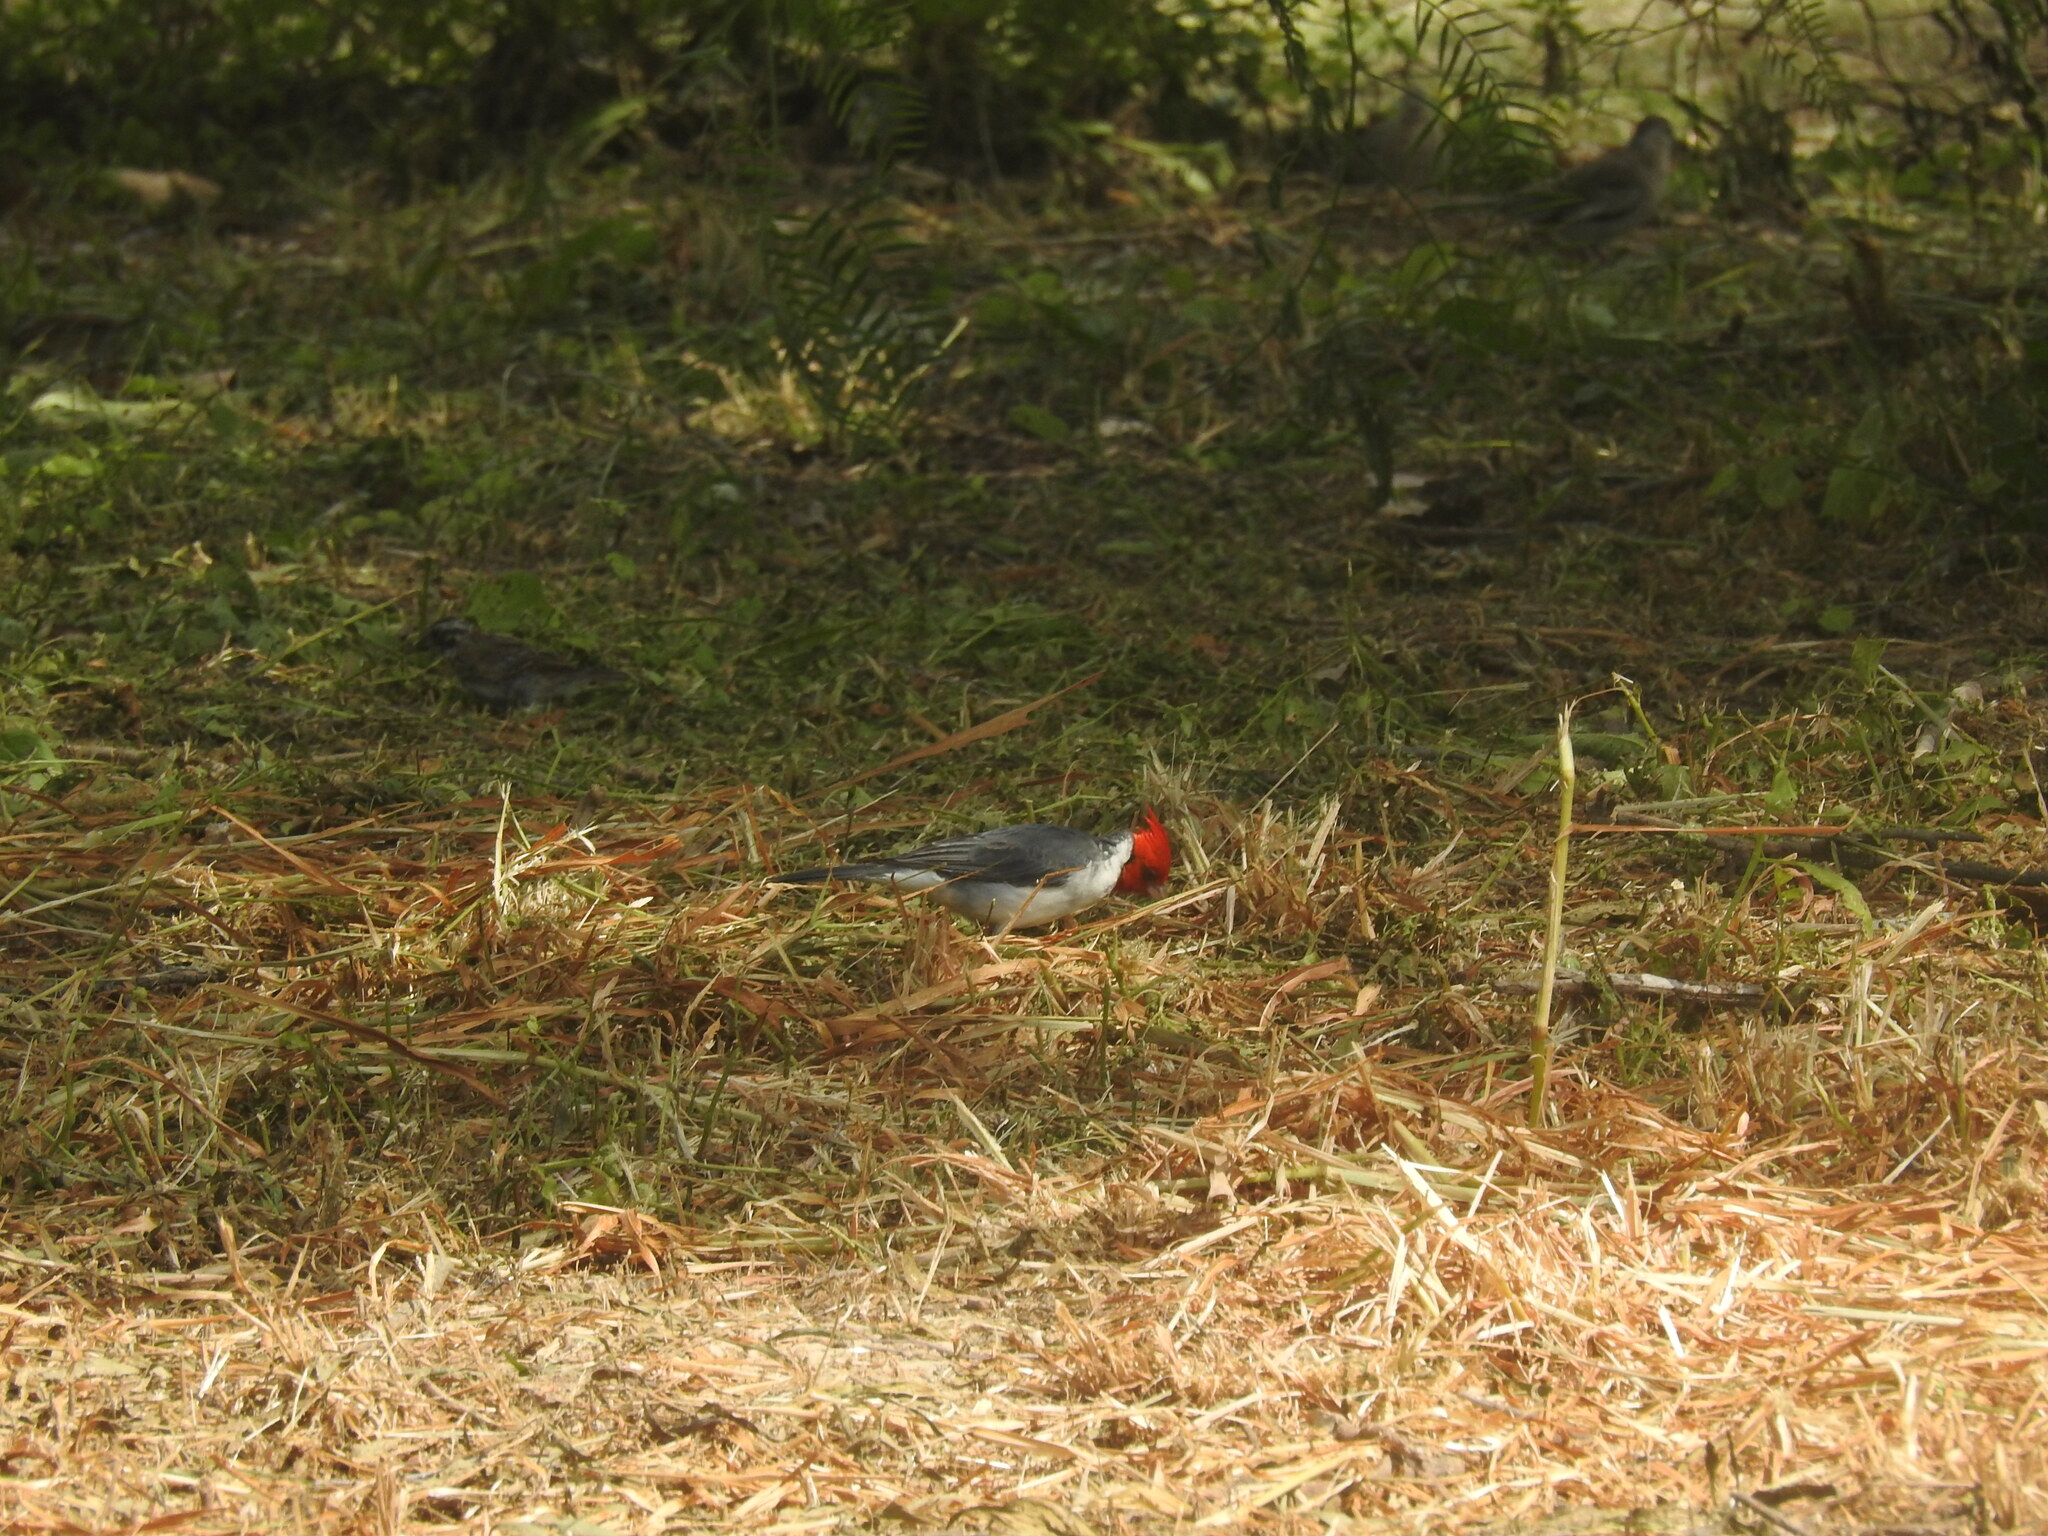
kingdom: Animalia
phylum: Chordata
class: Aves
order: Passeriformes
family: Thraupidae
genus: Paroaria
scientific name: Paroaria coronata
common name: Red-crested cardinal
